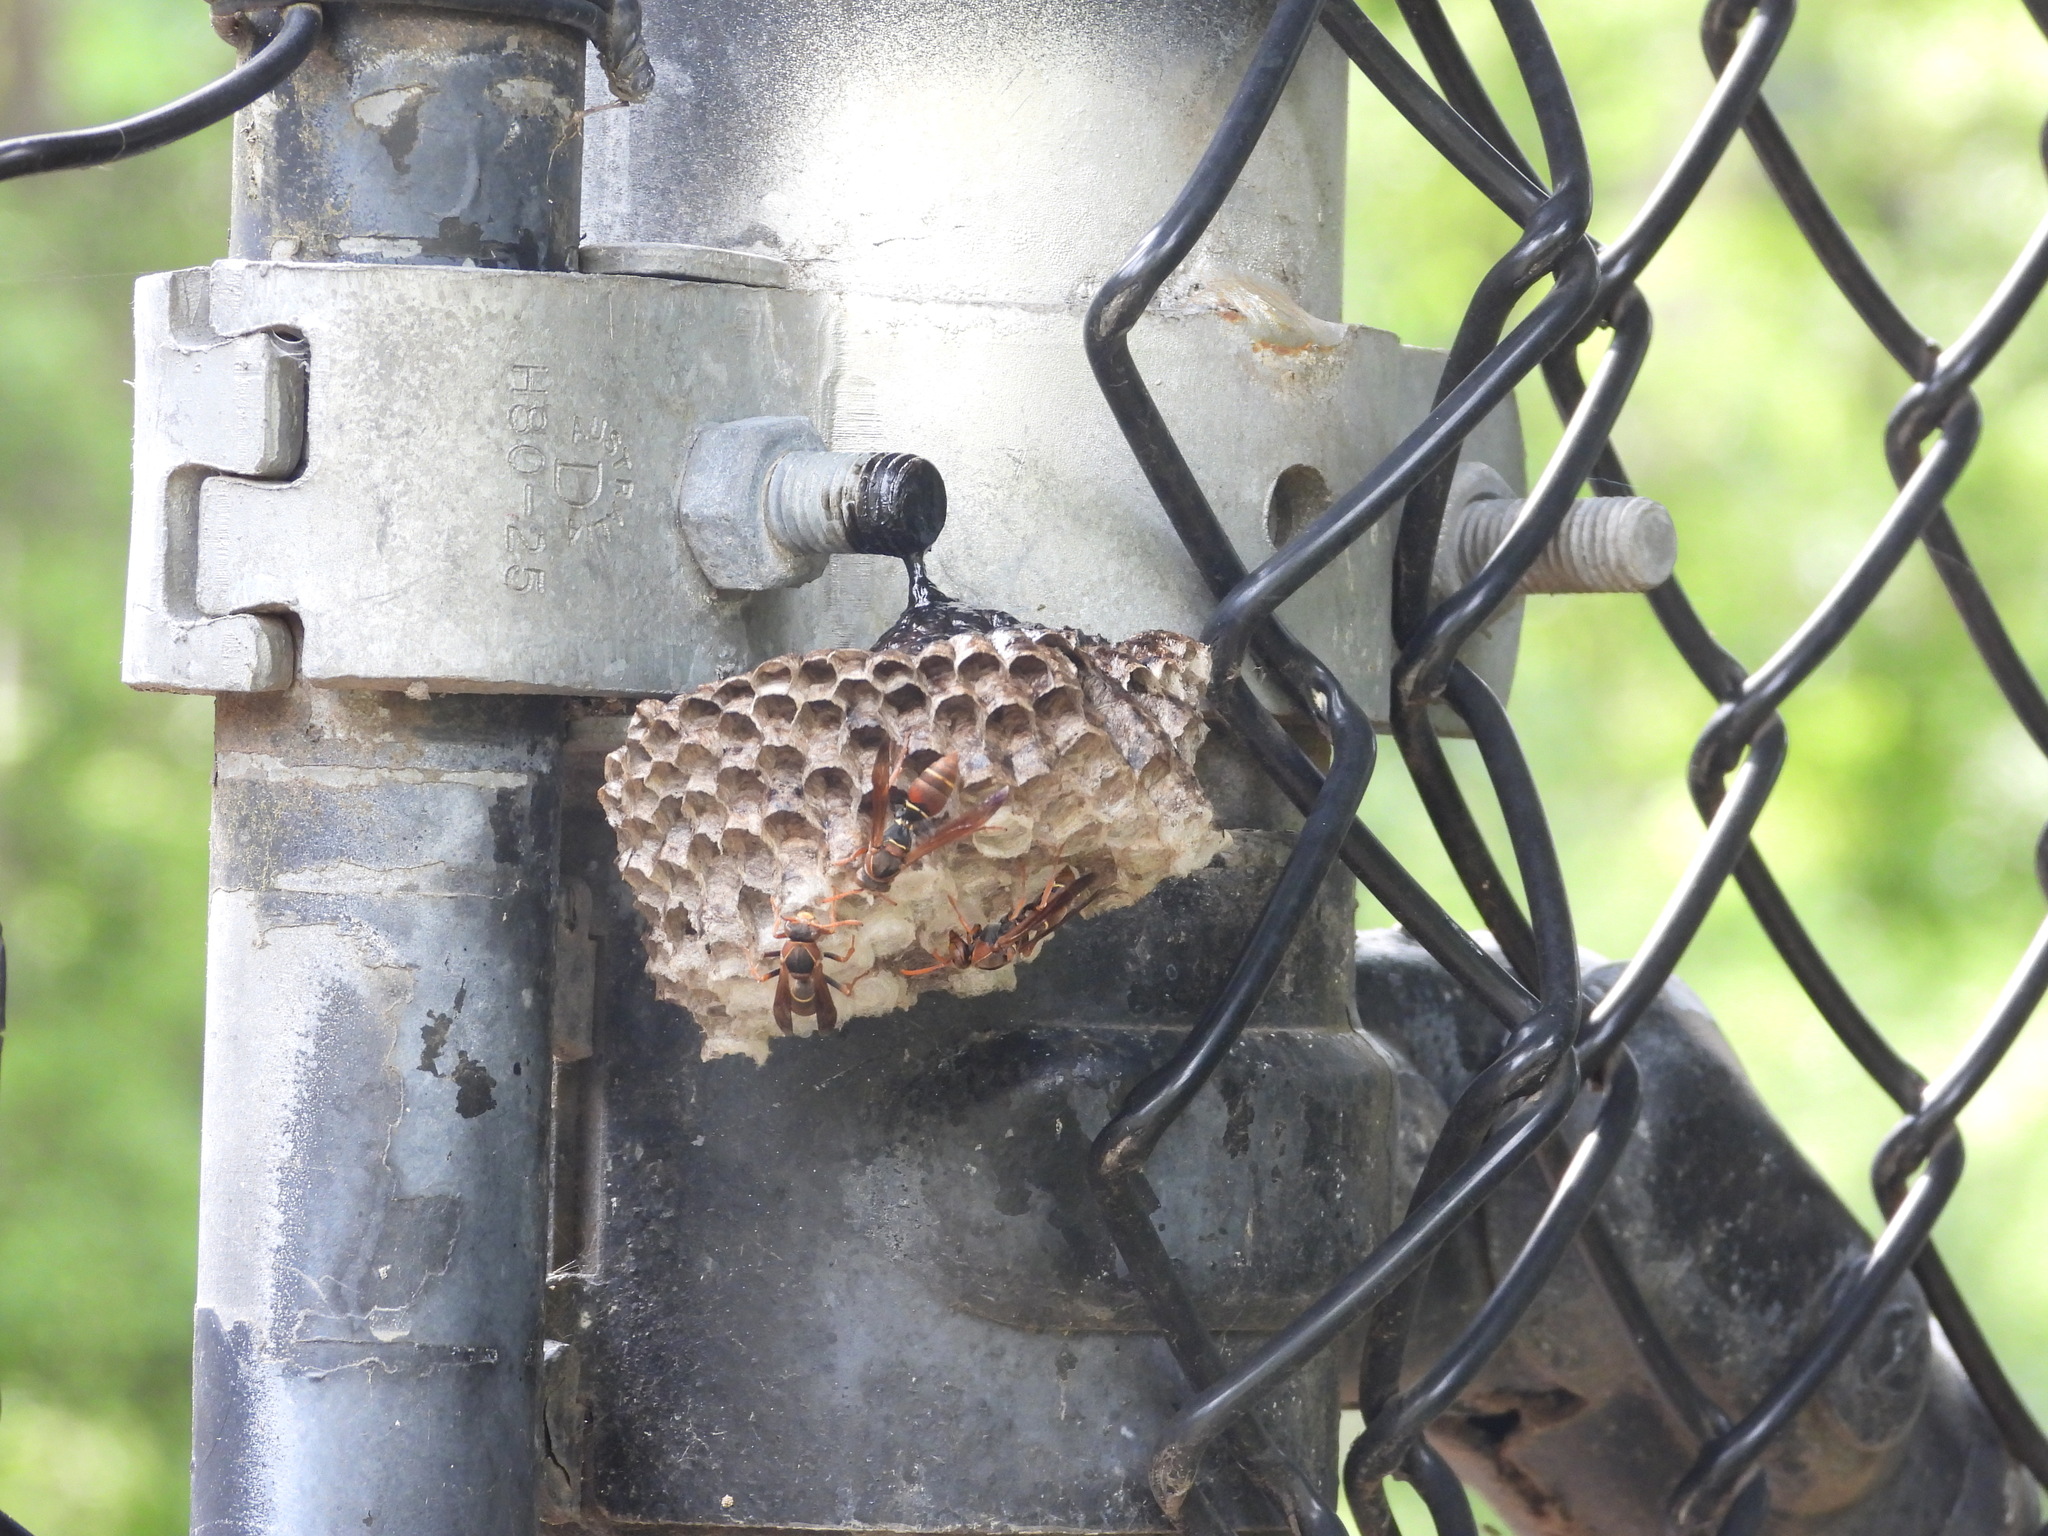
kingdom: Animalia
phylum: Arthropoda
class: Insecta
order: Hymenoptera
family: Eumenidae
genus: Polistes
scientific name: Polistes humilis
